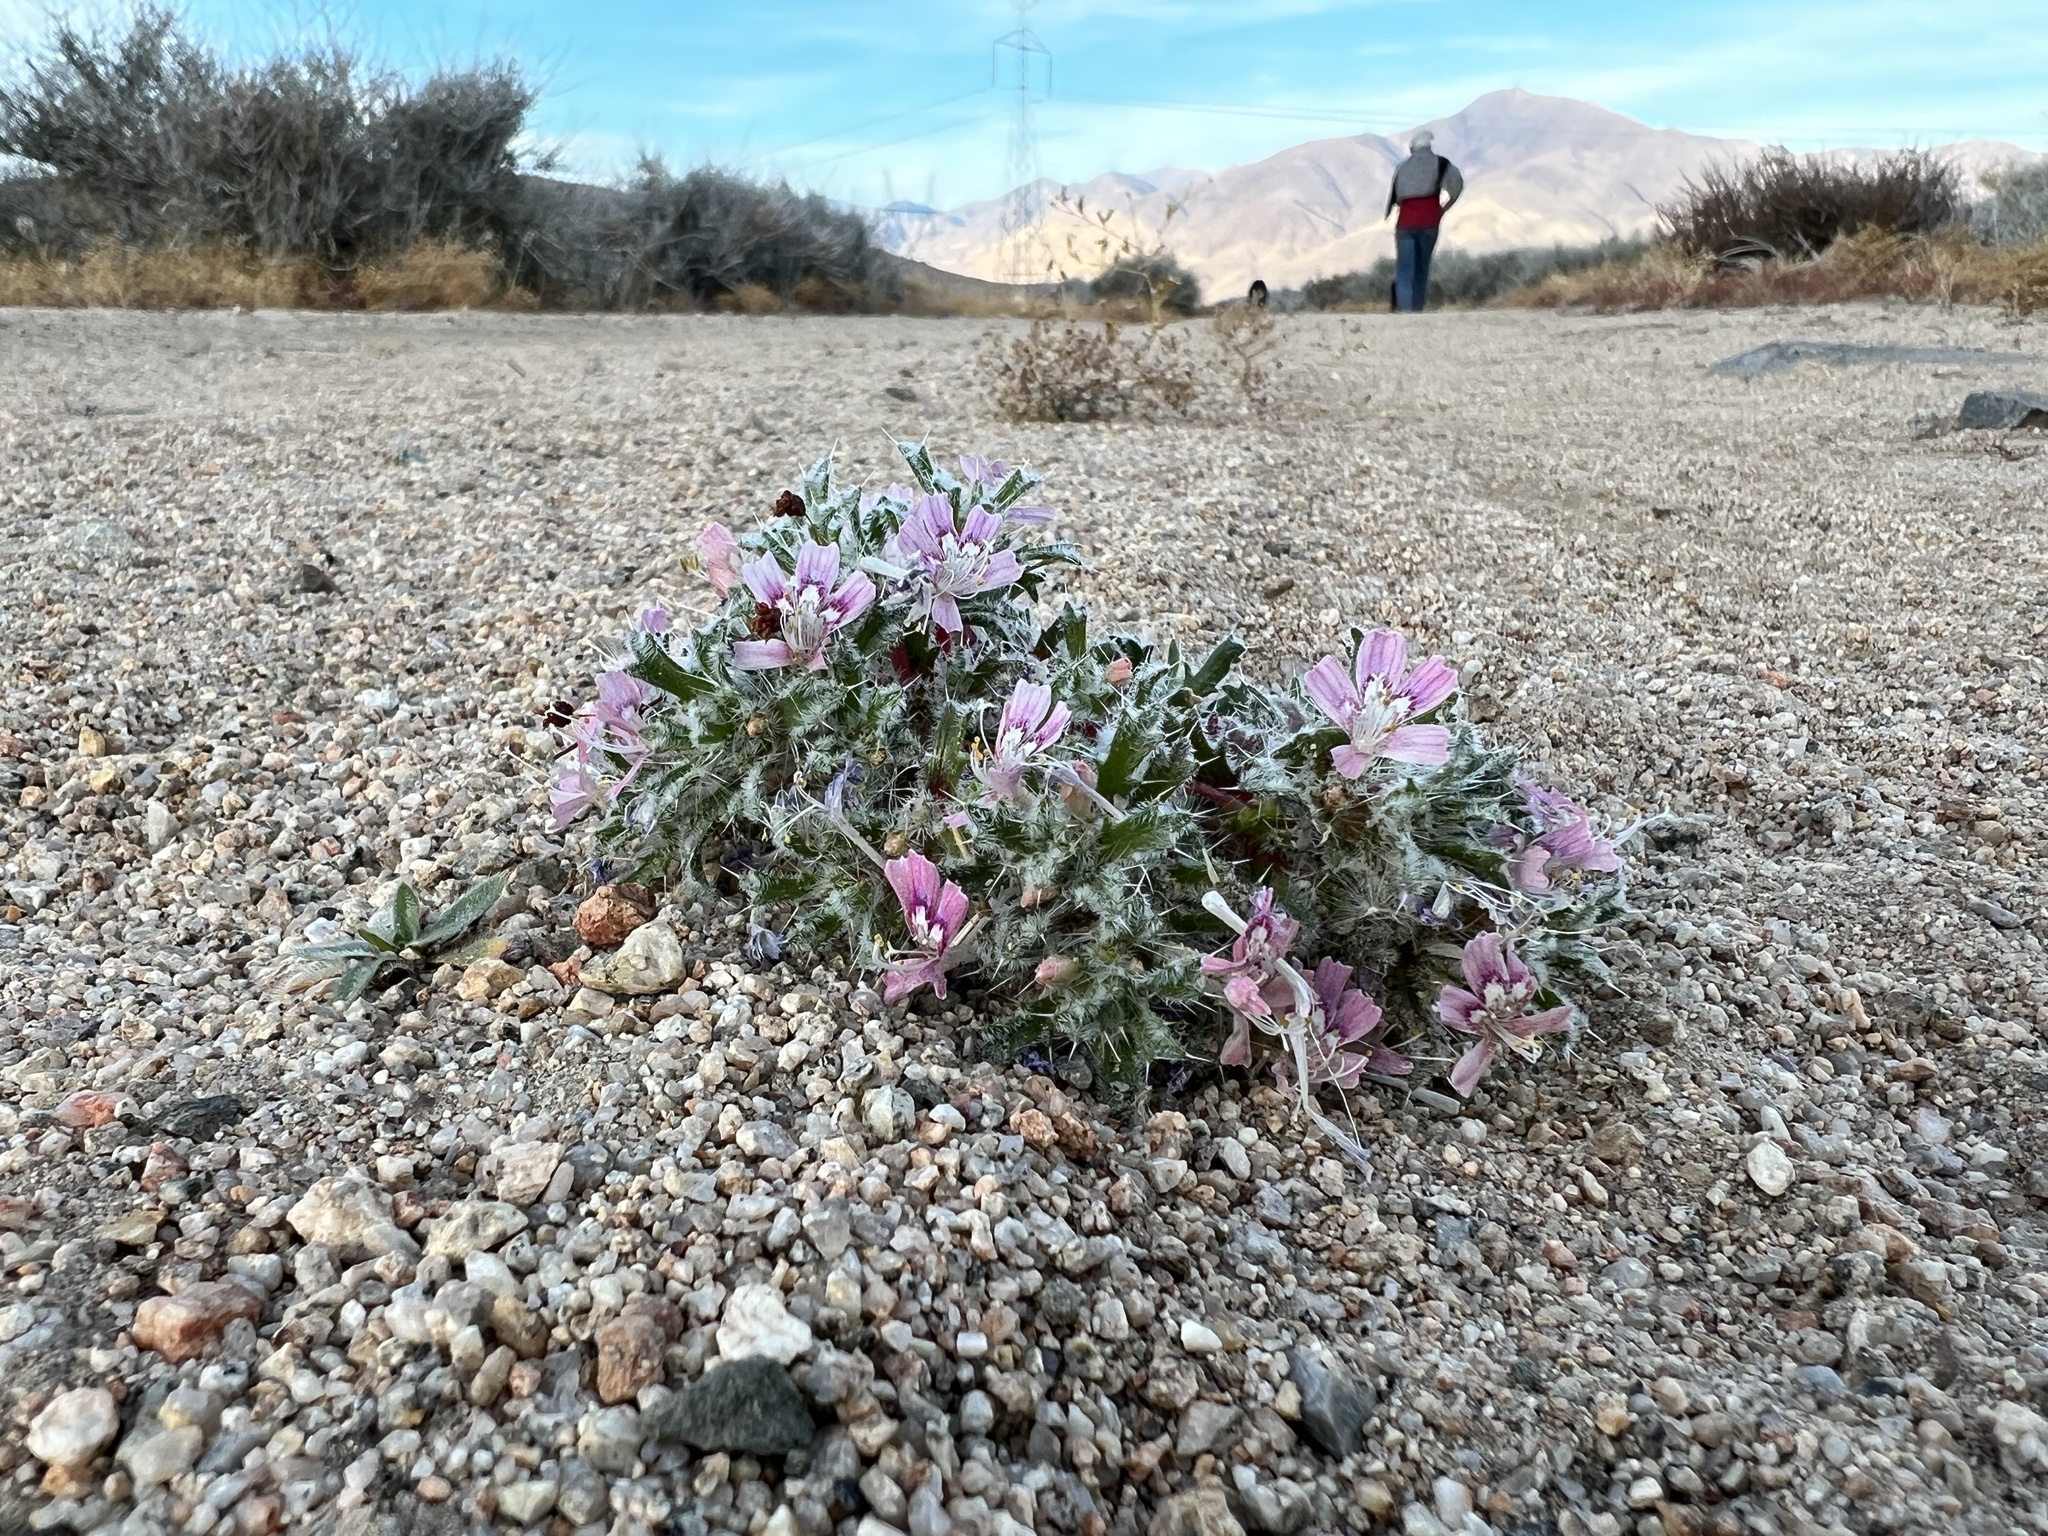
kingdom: Plantae
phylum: Tracheophyta
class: Magnoliopsida
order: Ericales
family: Polemoniaceae
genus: Loeseliastrum
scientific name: Loeseliastrum matthewsii
